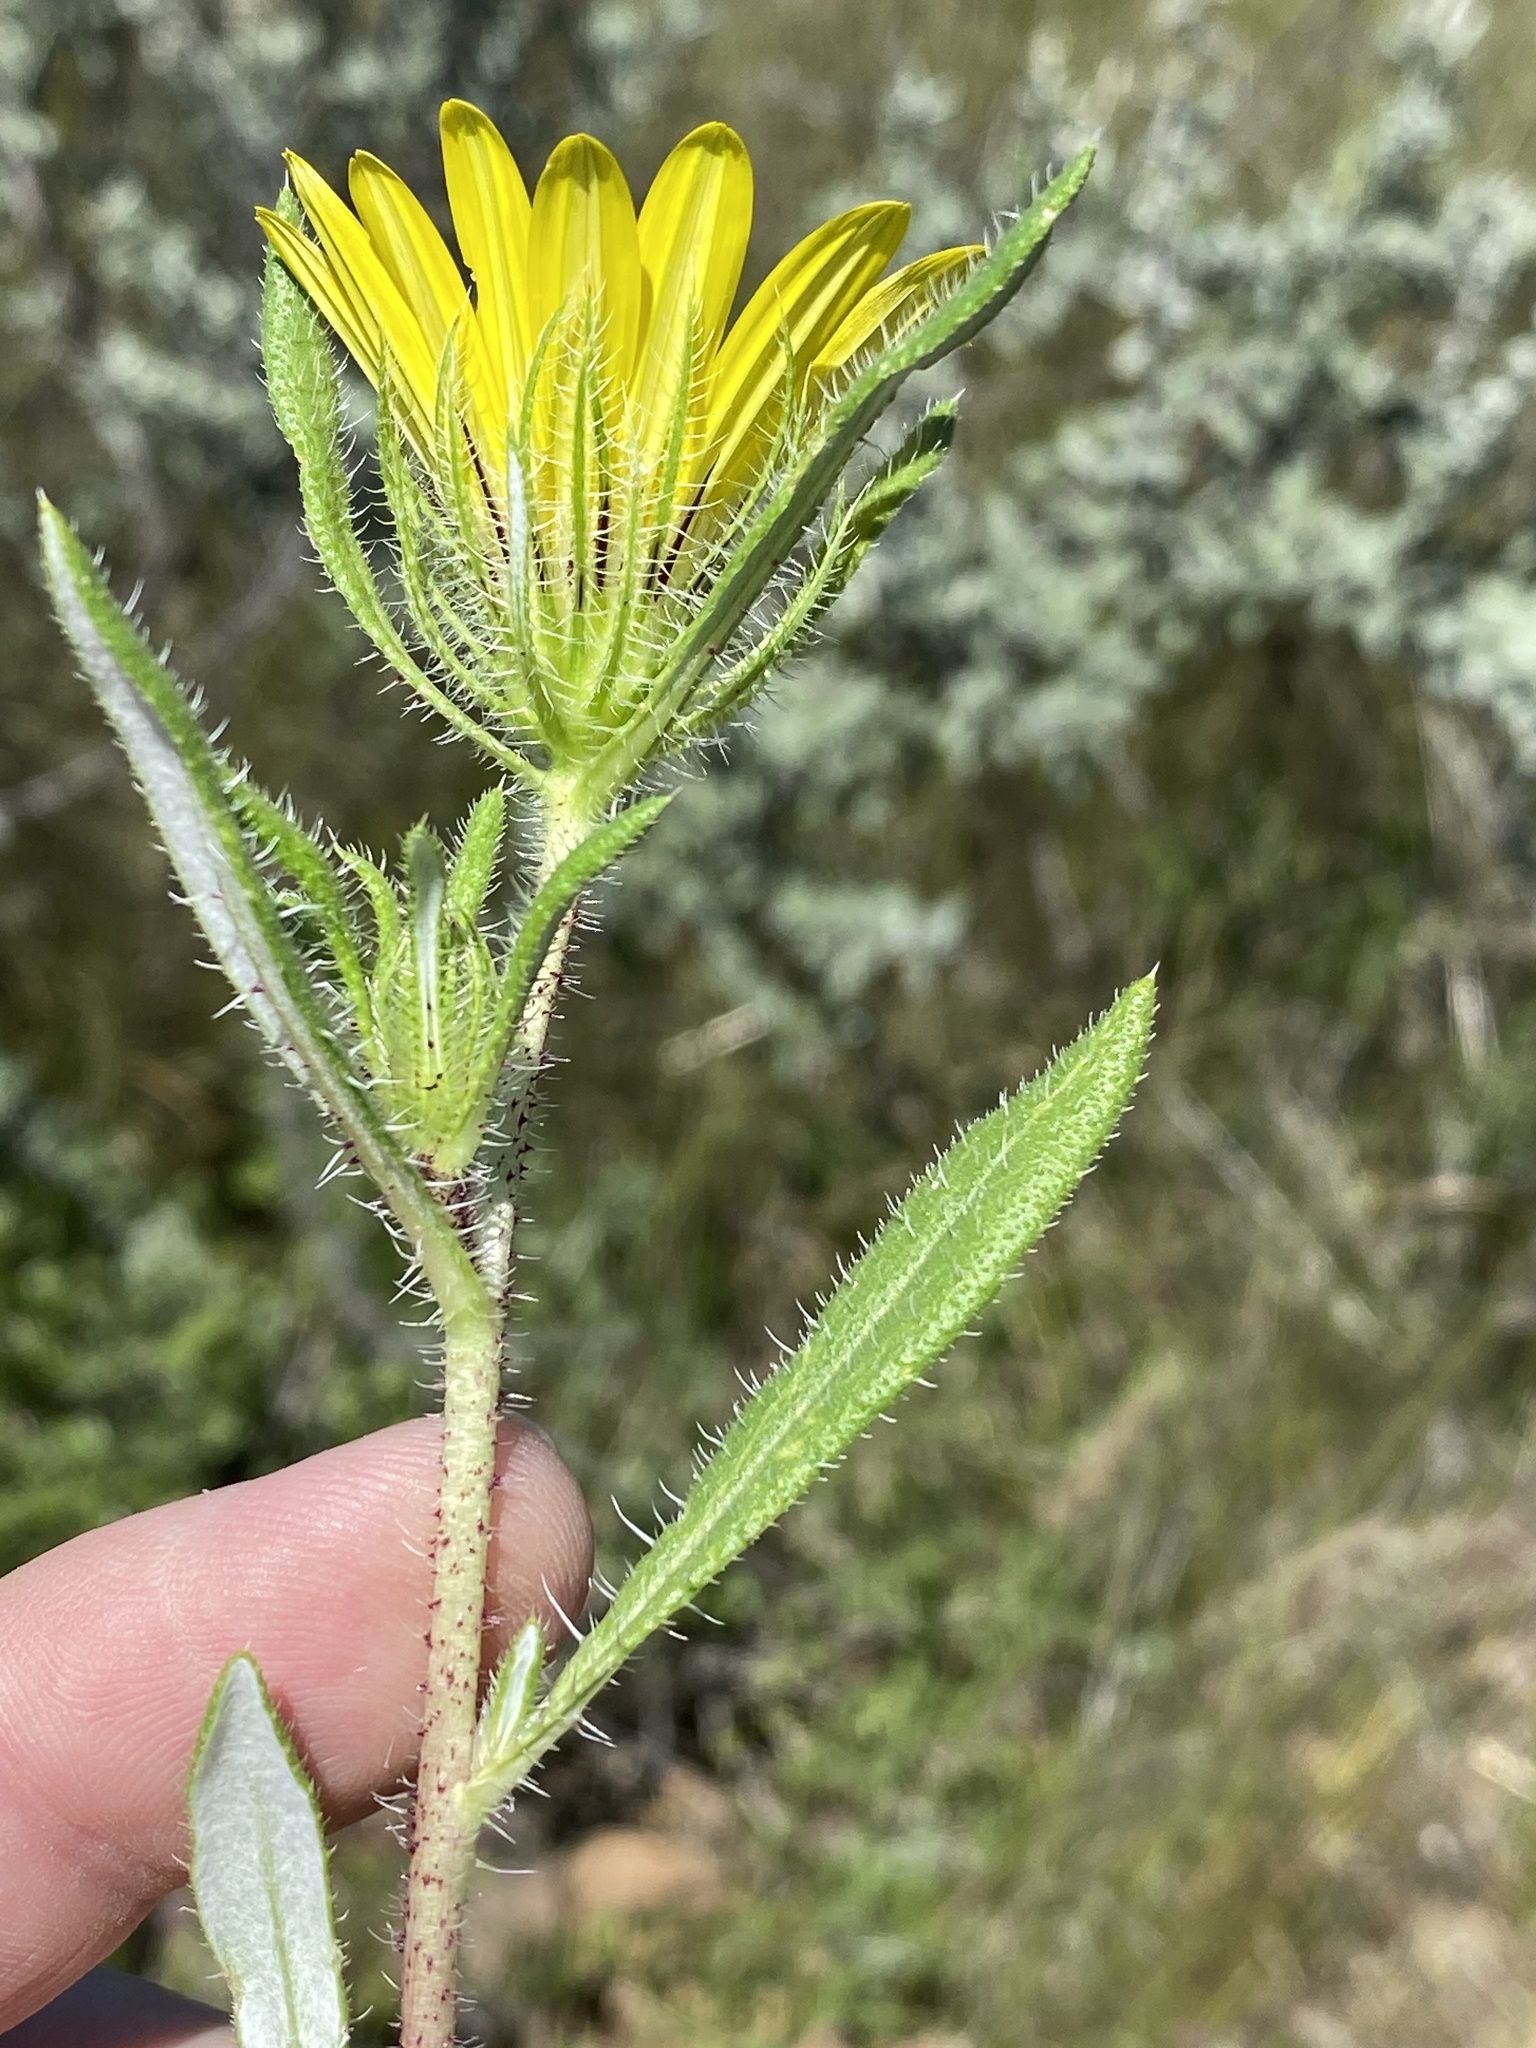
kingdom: Plantae
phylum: Tracheophyta
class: Magnoliopsida
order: Asterales
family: Asteraceae
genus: Roessleria
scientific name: Roessleria gazanioides
